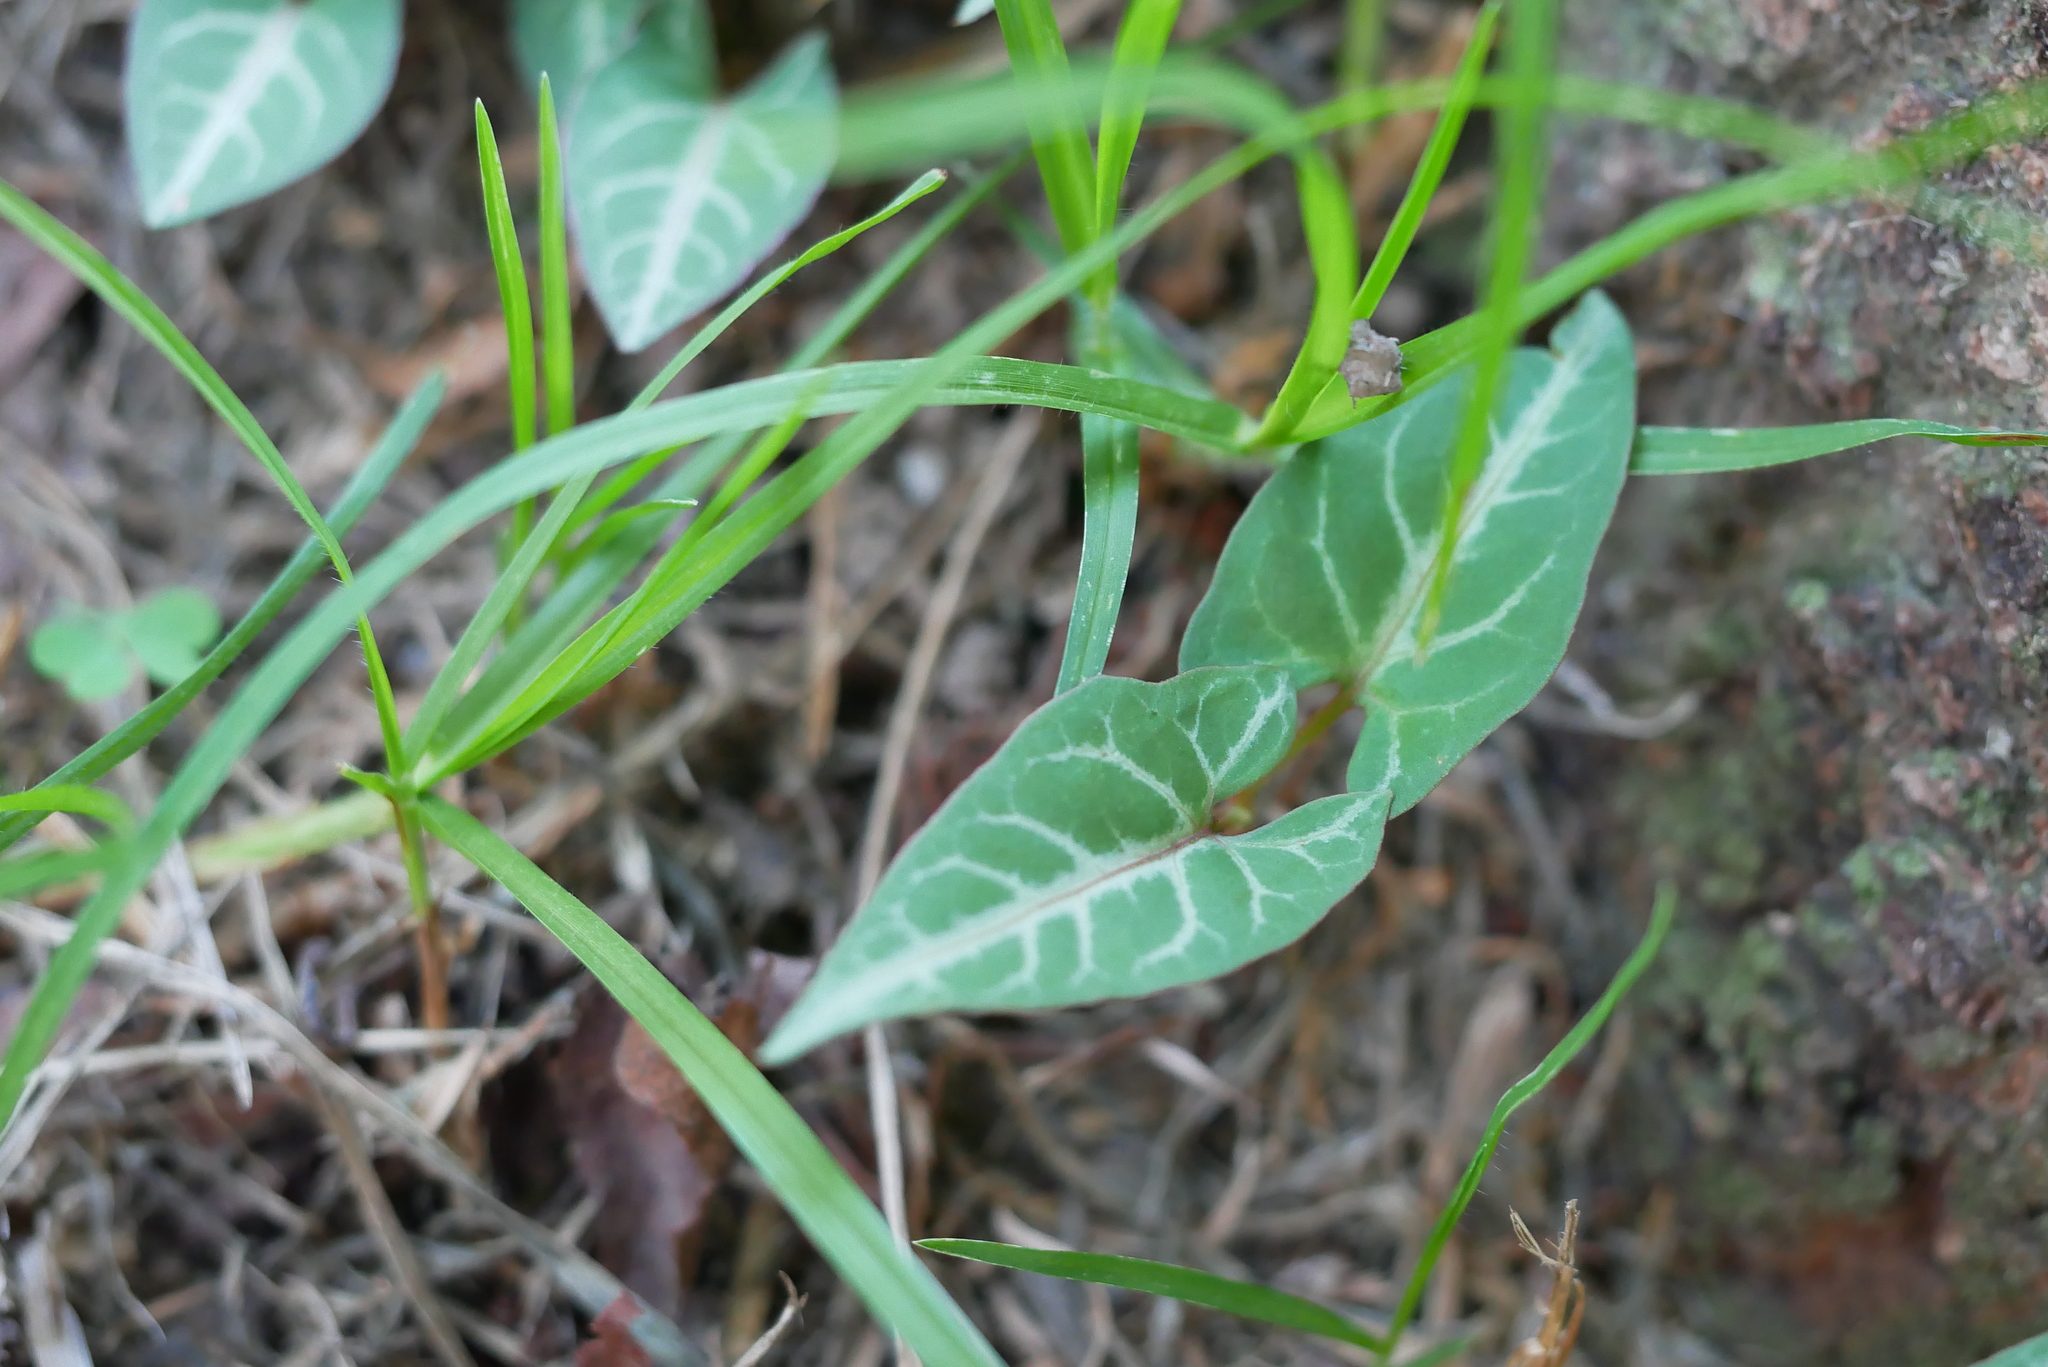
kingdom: Plantae
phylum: Tracheophyta
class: Magnoliopsida
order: Caryophyllales
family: Polygonaceae
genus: Reynoutria
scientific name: Reynoutria multiflora
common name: Chinese fleeceflower
